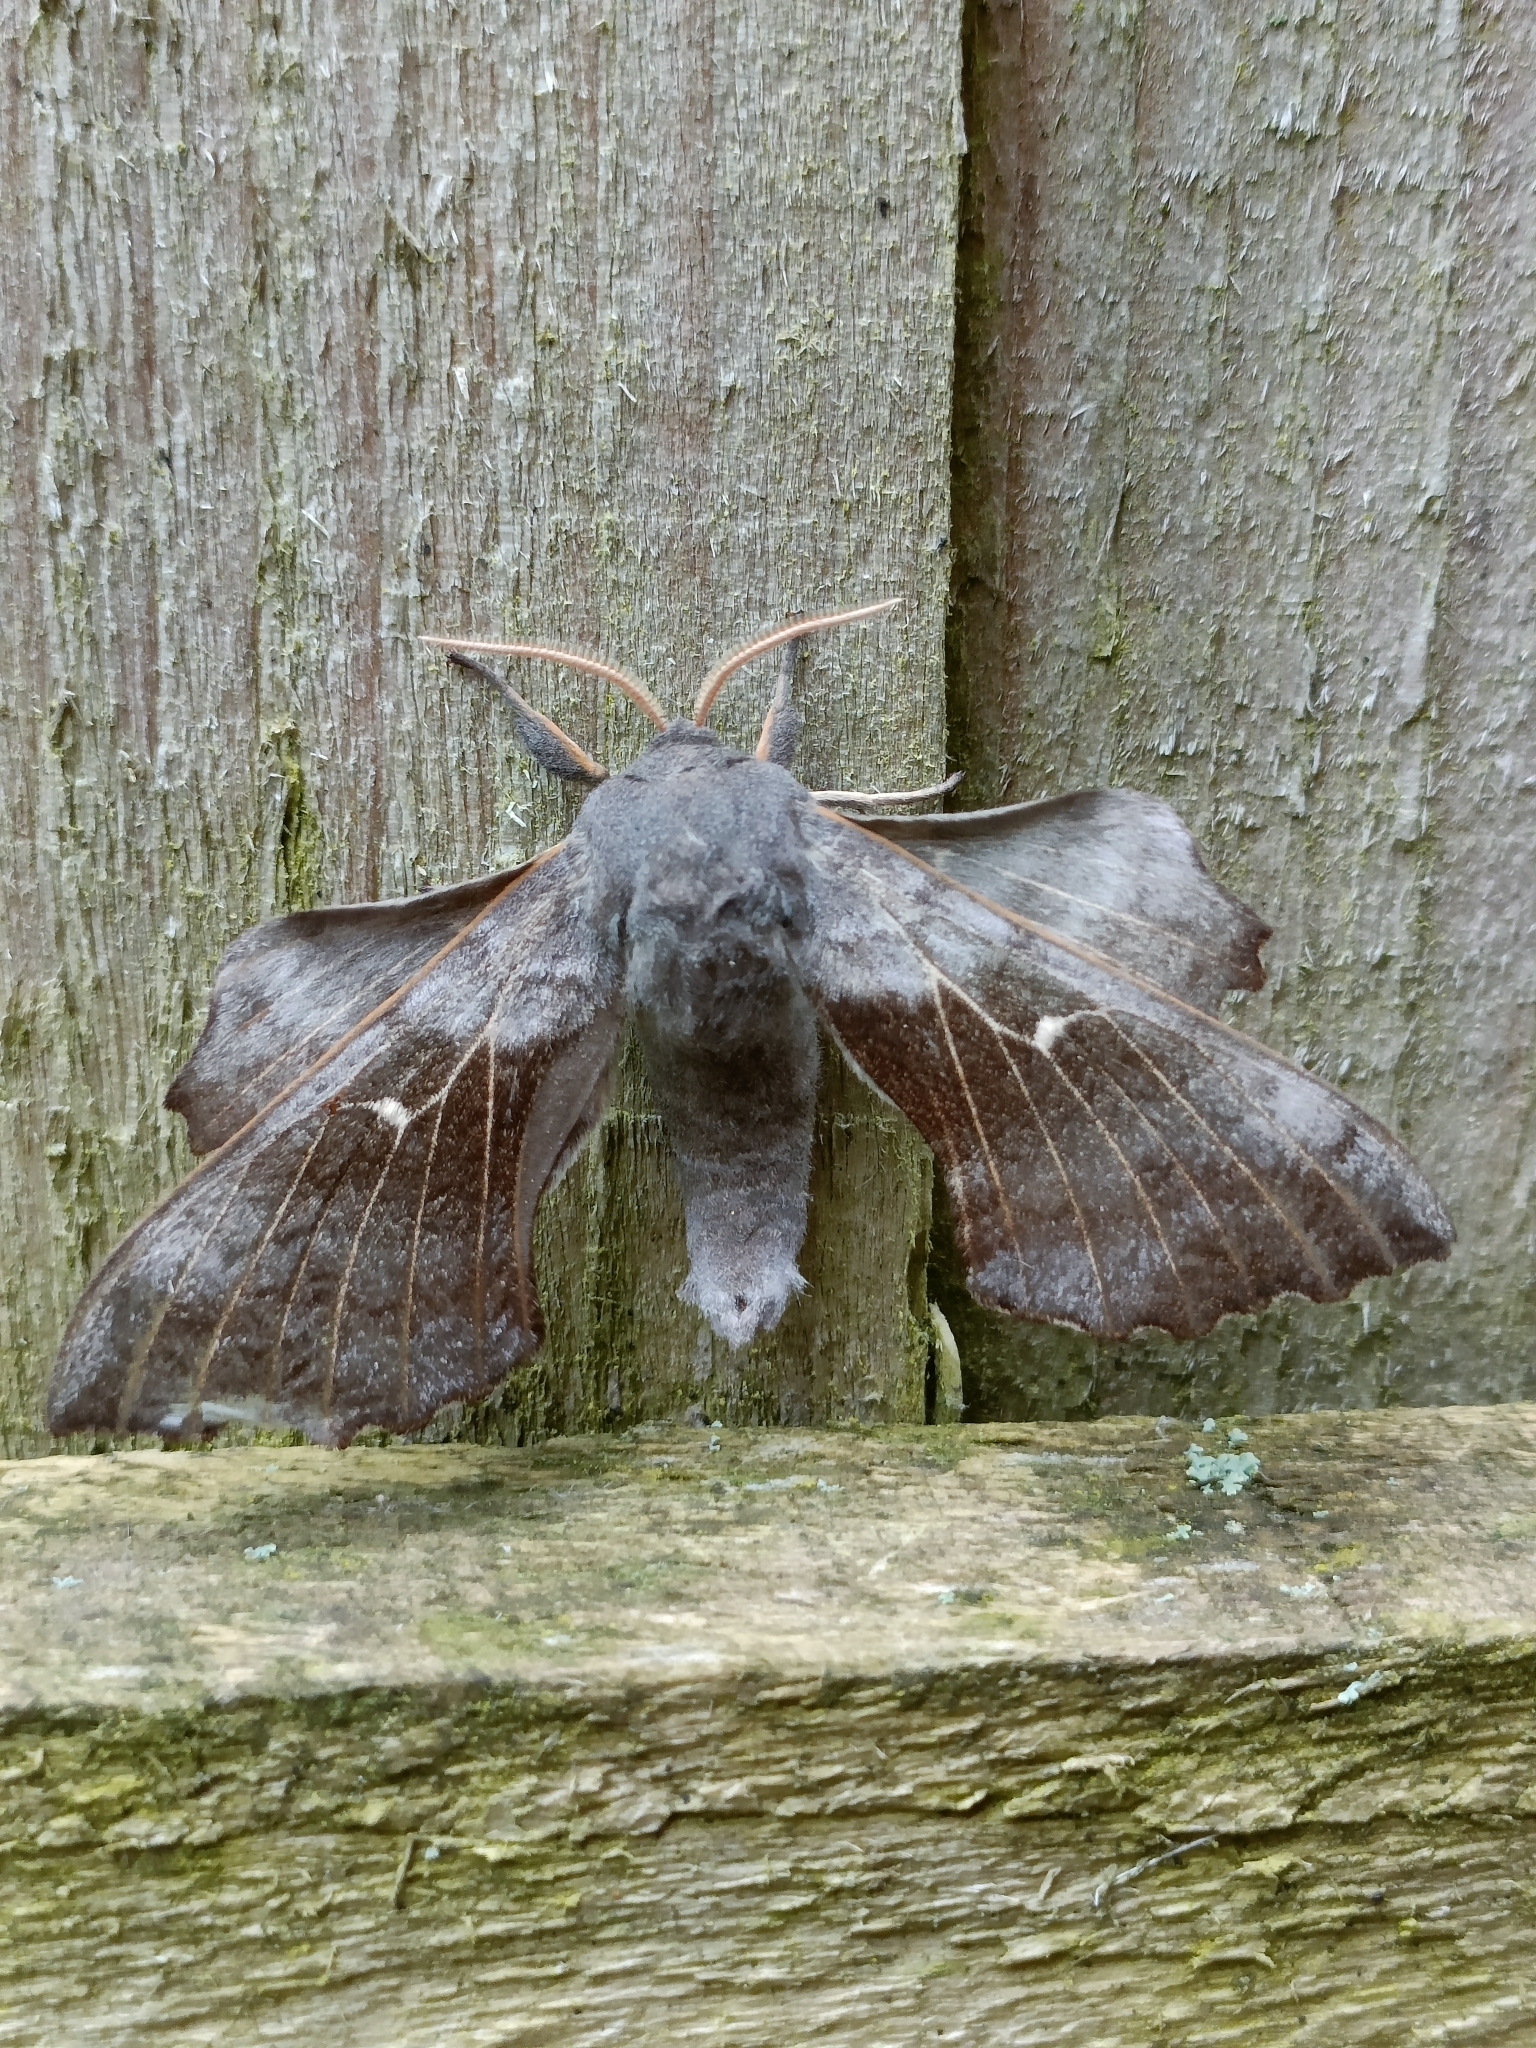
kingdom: Animalia
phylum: Arthropoda
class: Insecta
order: Lepidoptera
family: Sphingidae
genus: Laothoe
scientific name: Laothoe populi
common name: Poplar hawk-moth
